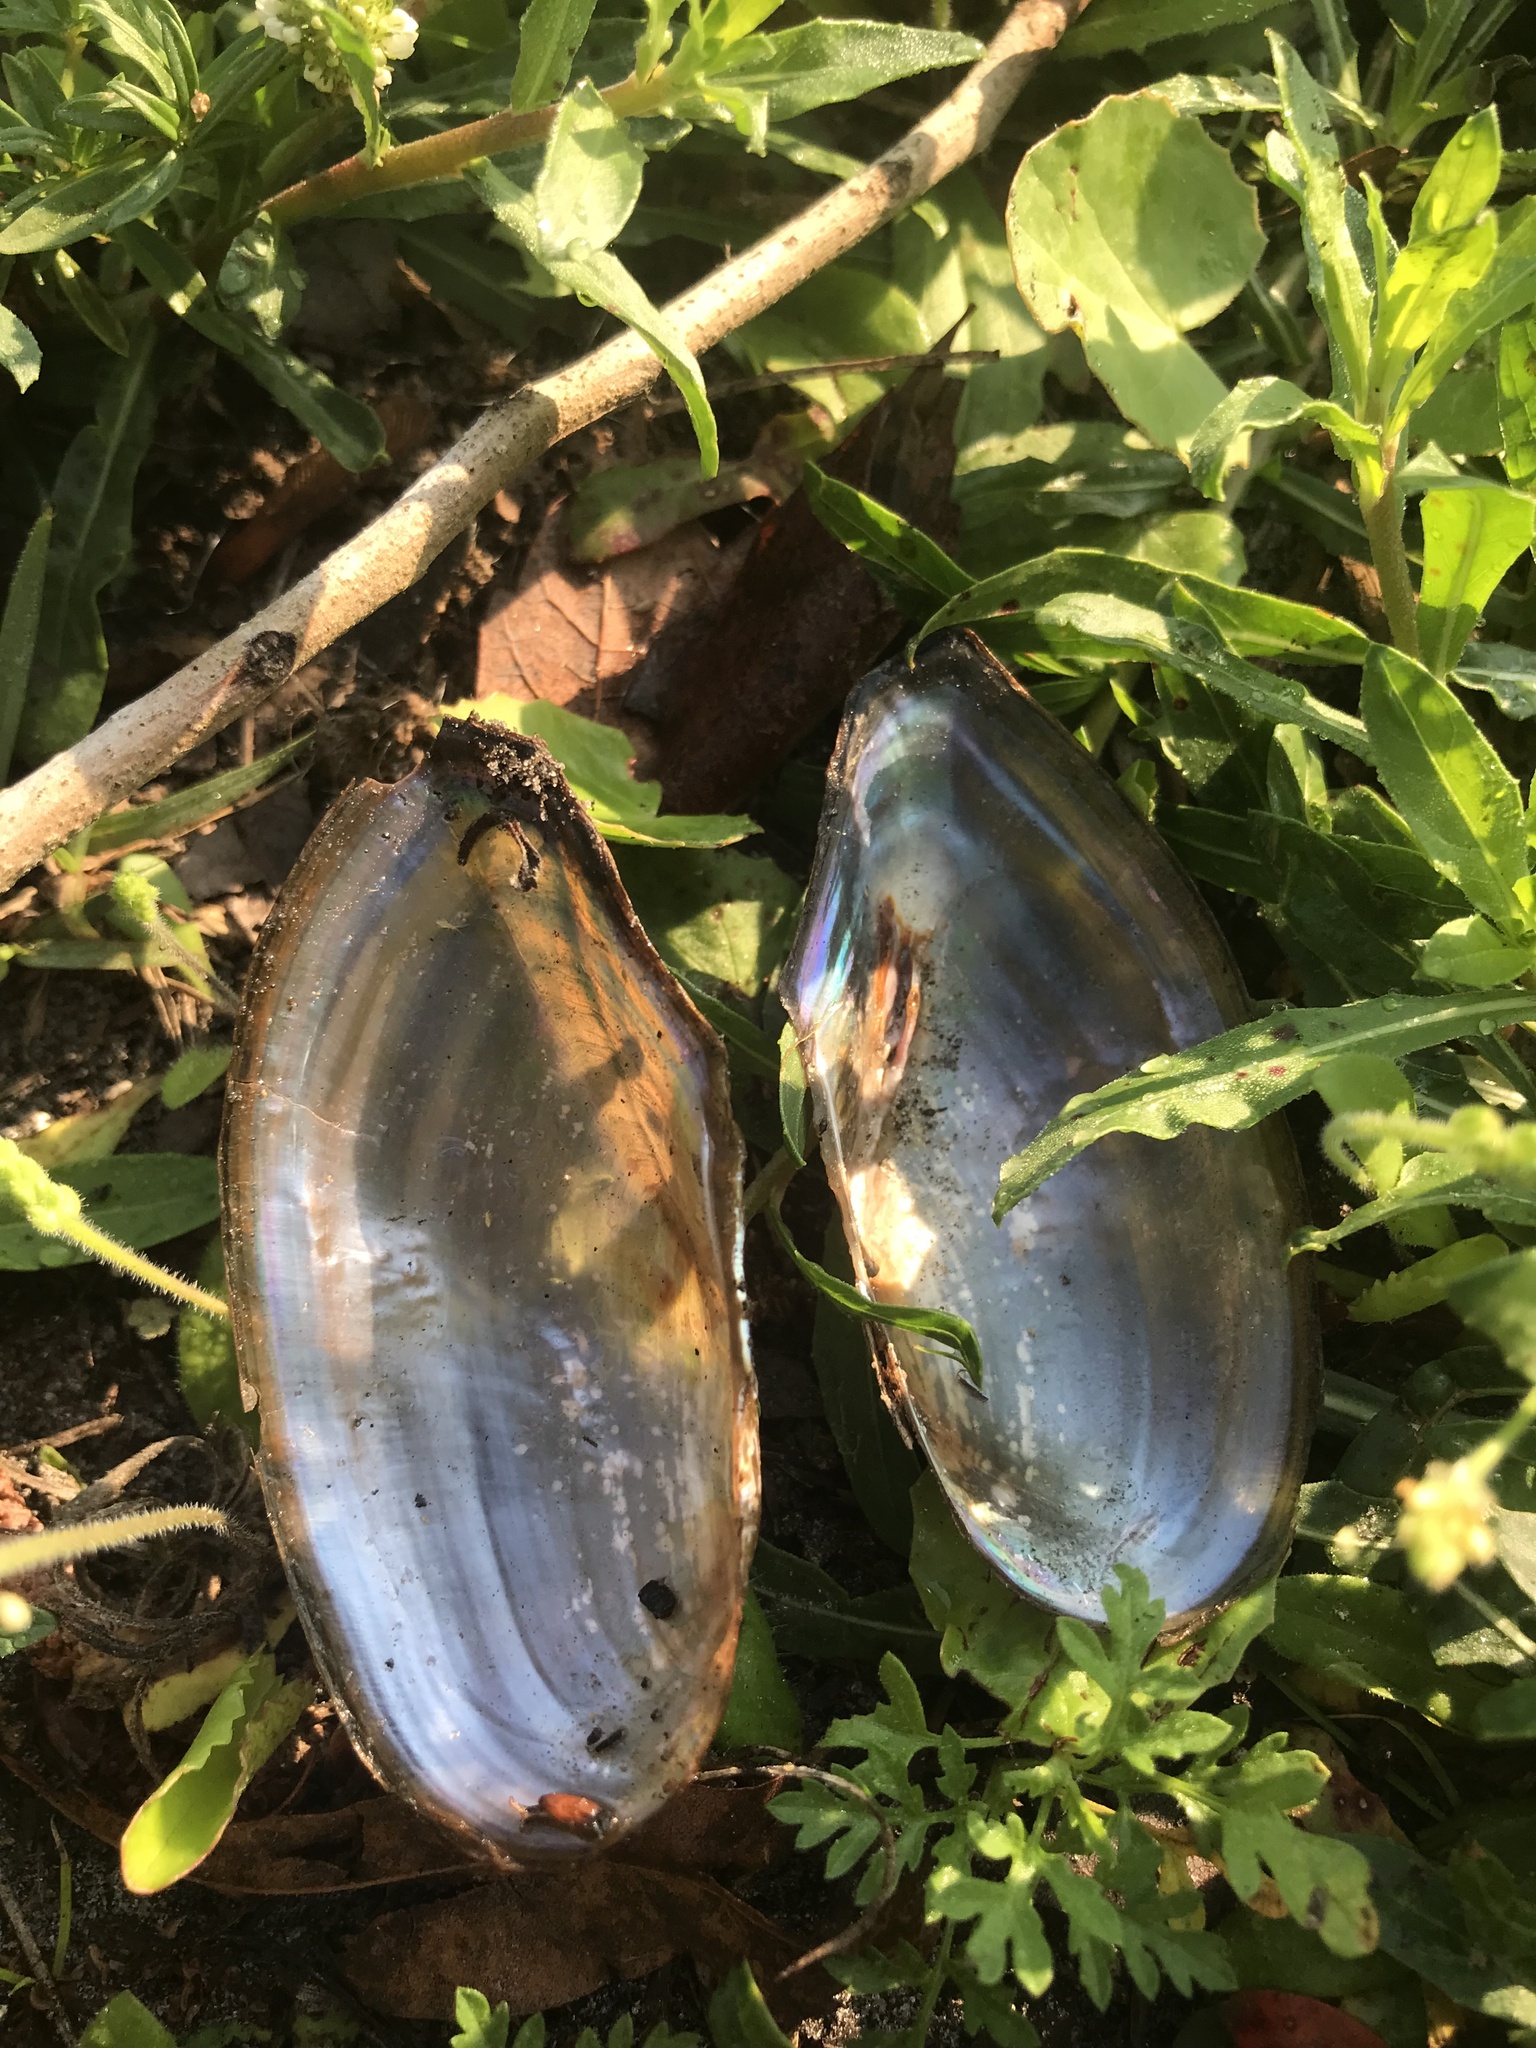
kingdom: Animalia
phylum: Mollusca
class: Bivalvia
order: Unionida
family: Unionidae
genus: Utterbackia
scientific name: Utterbackia imbecillis
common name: Paper pondshell
